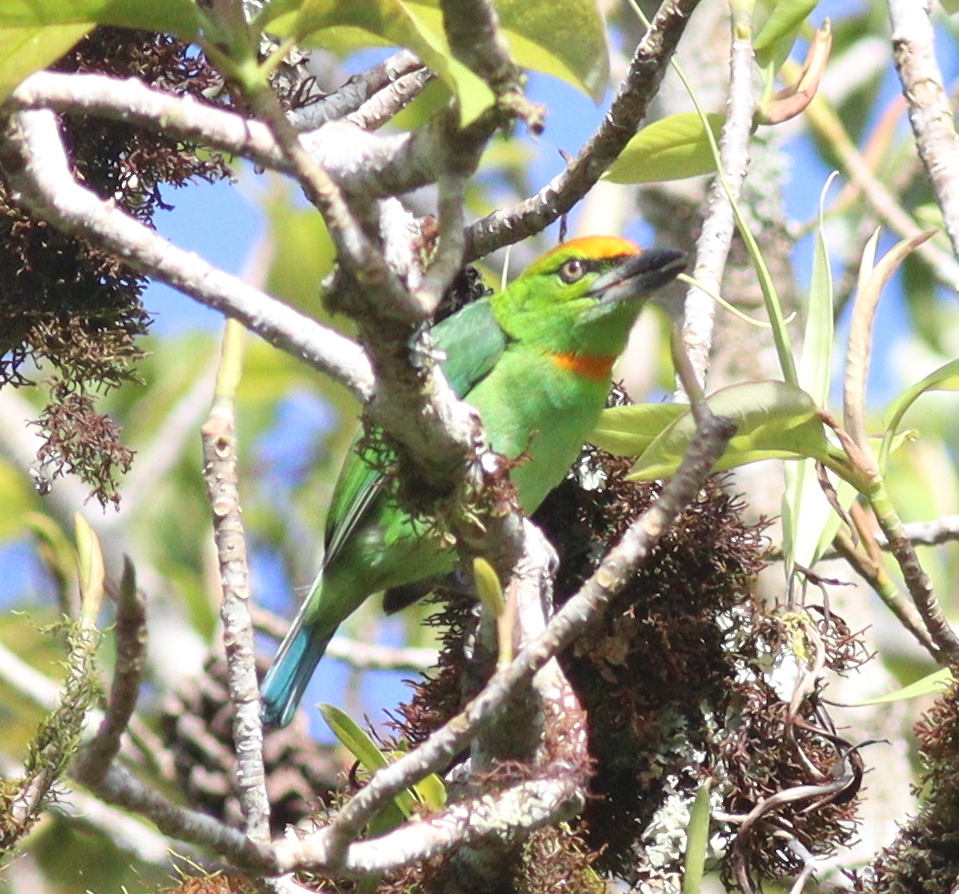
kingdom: Animalia
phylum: Chordata
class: Aves
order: Piciformes
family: Megalaimidae
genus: Psilopogon
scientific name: Psilopogon armillaris
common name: Flame-fronted barbet
